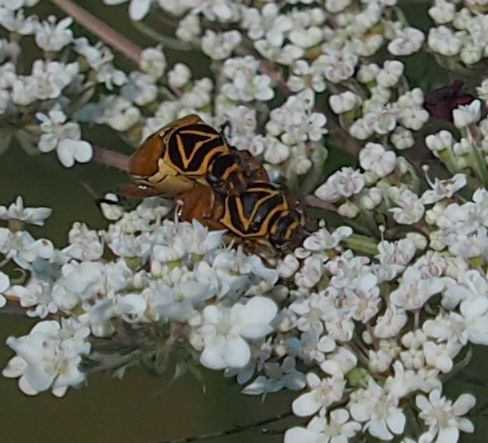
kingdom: Animalia
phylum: Arthropoda
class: Insecta
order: Coleoptera
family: Scarabaeidae
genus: Trigonopeltastes
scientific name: Trigonopeltastes delta
